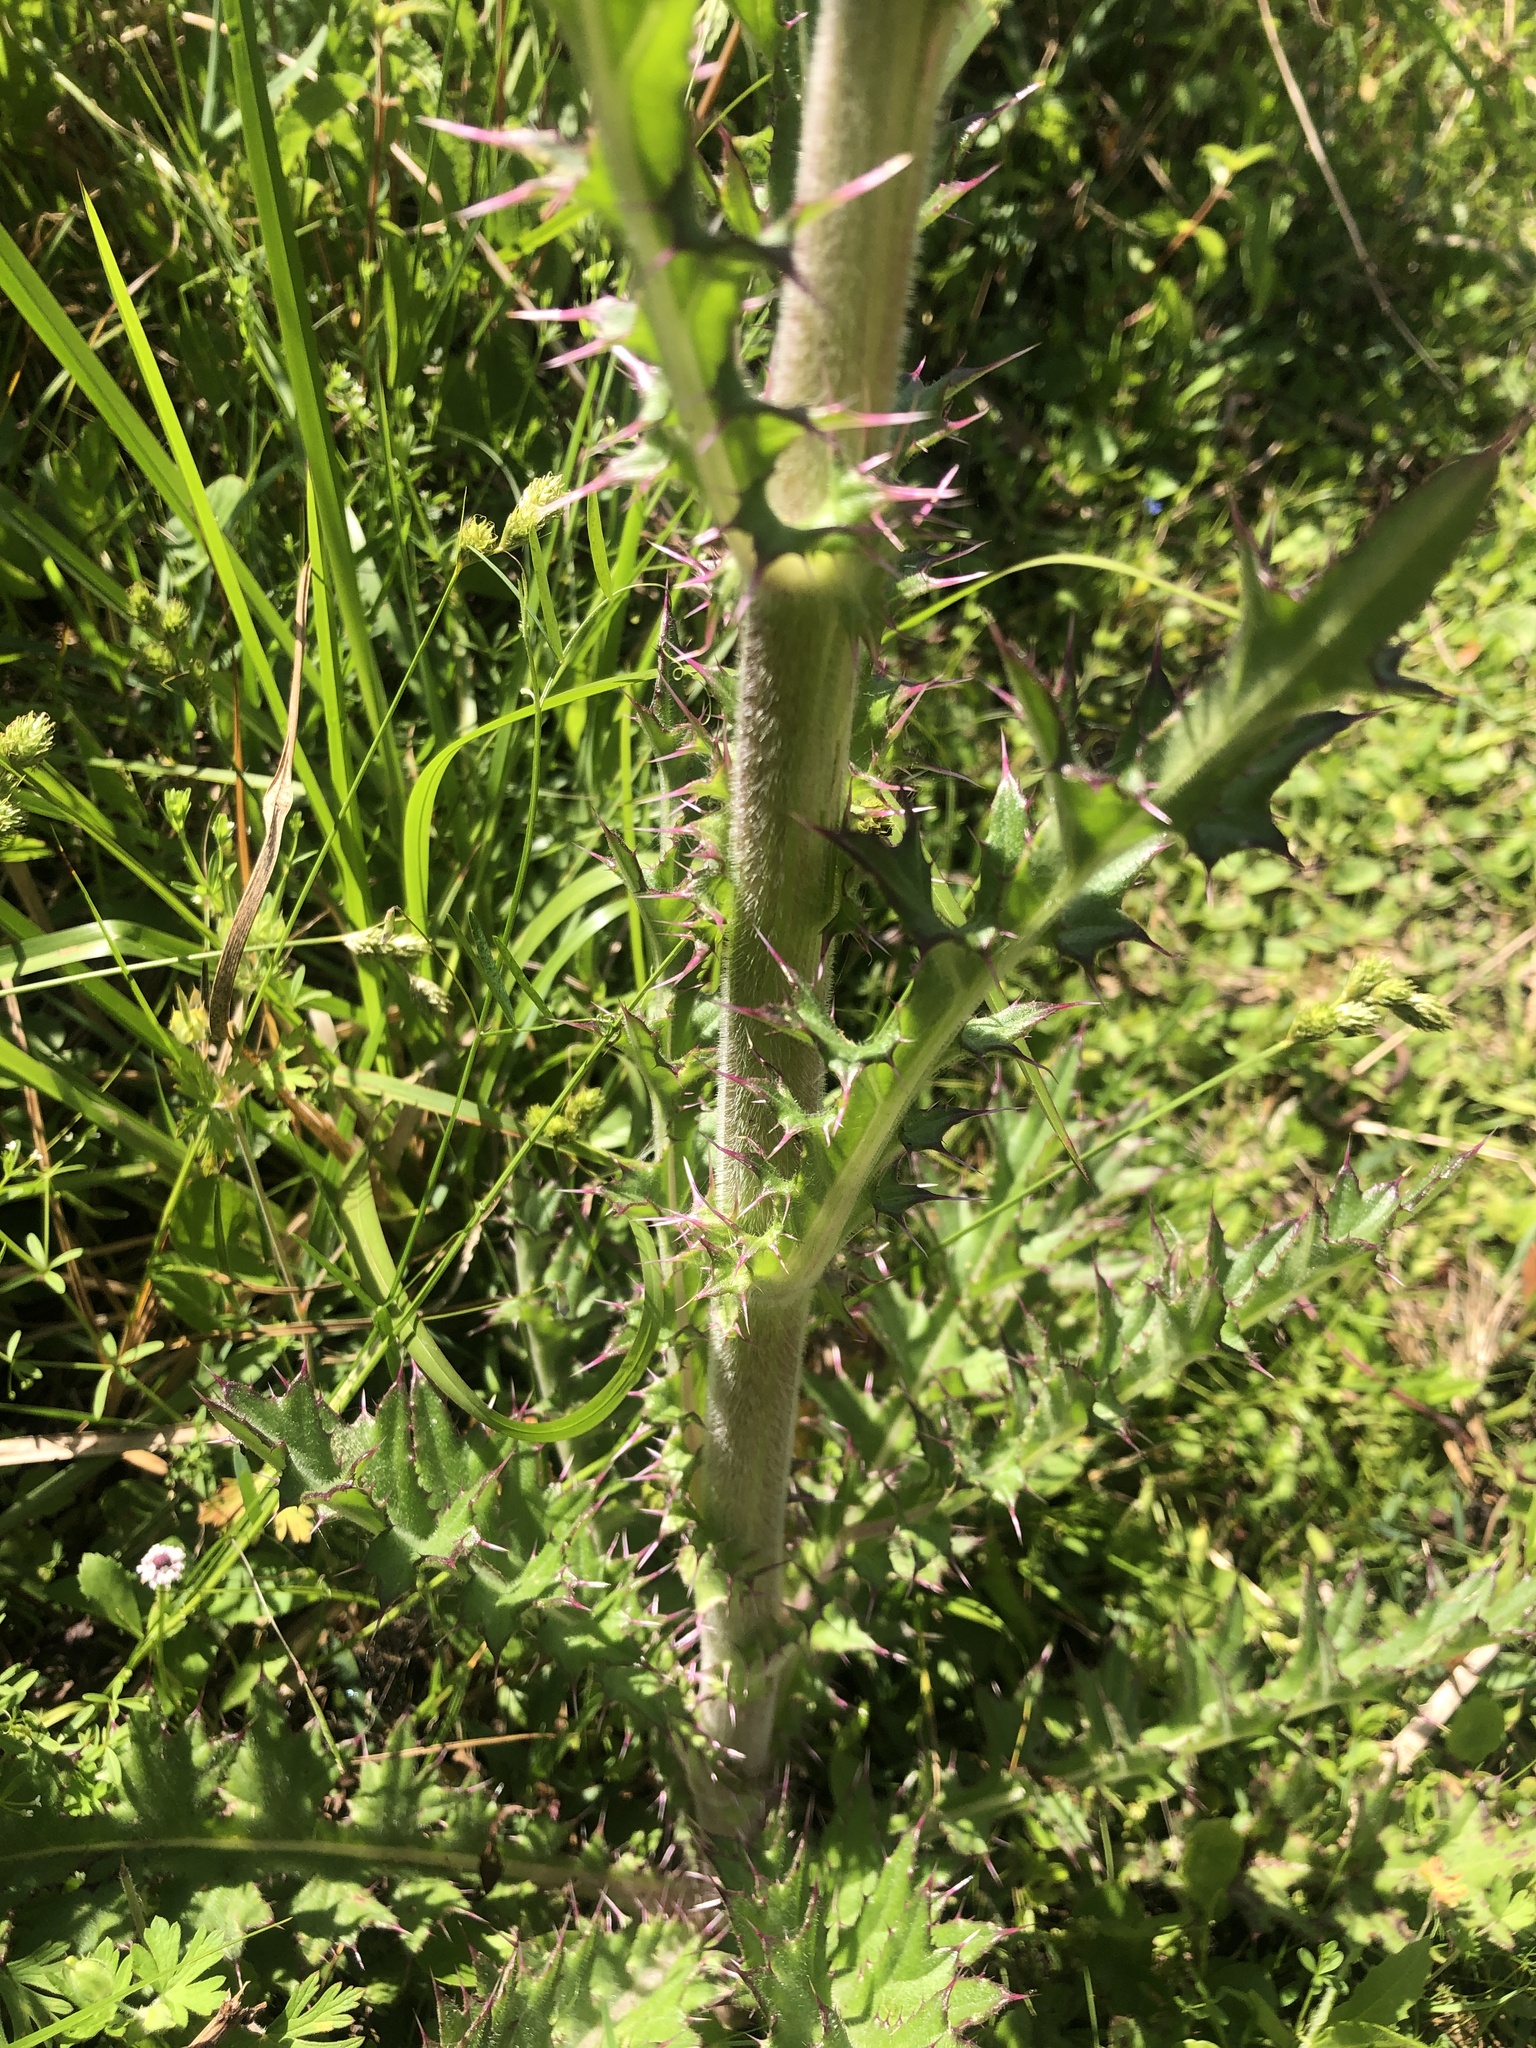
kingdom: Plantae
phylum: Tracheophyta
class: Magnoliopsida
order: Asterales
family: Asteraceae
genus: Cirsium
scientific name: Cirsium horridulum
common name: Bristly thistle
